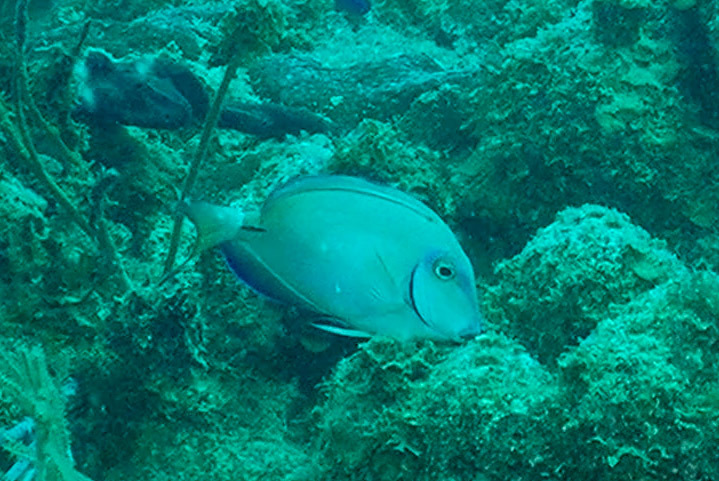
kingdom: Animalia
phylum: Chordata
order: Perciformes
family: Acanthuridae
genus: Acanthurus
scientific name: Acanthurus bahianus
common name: Ocean surgeon
